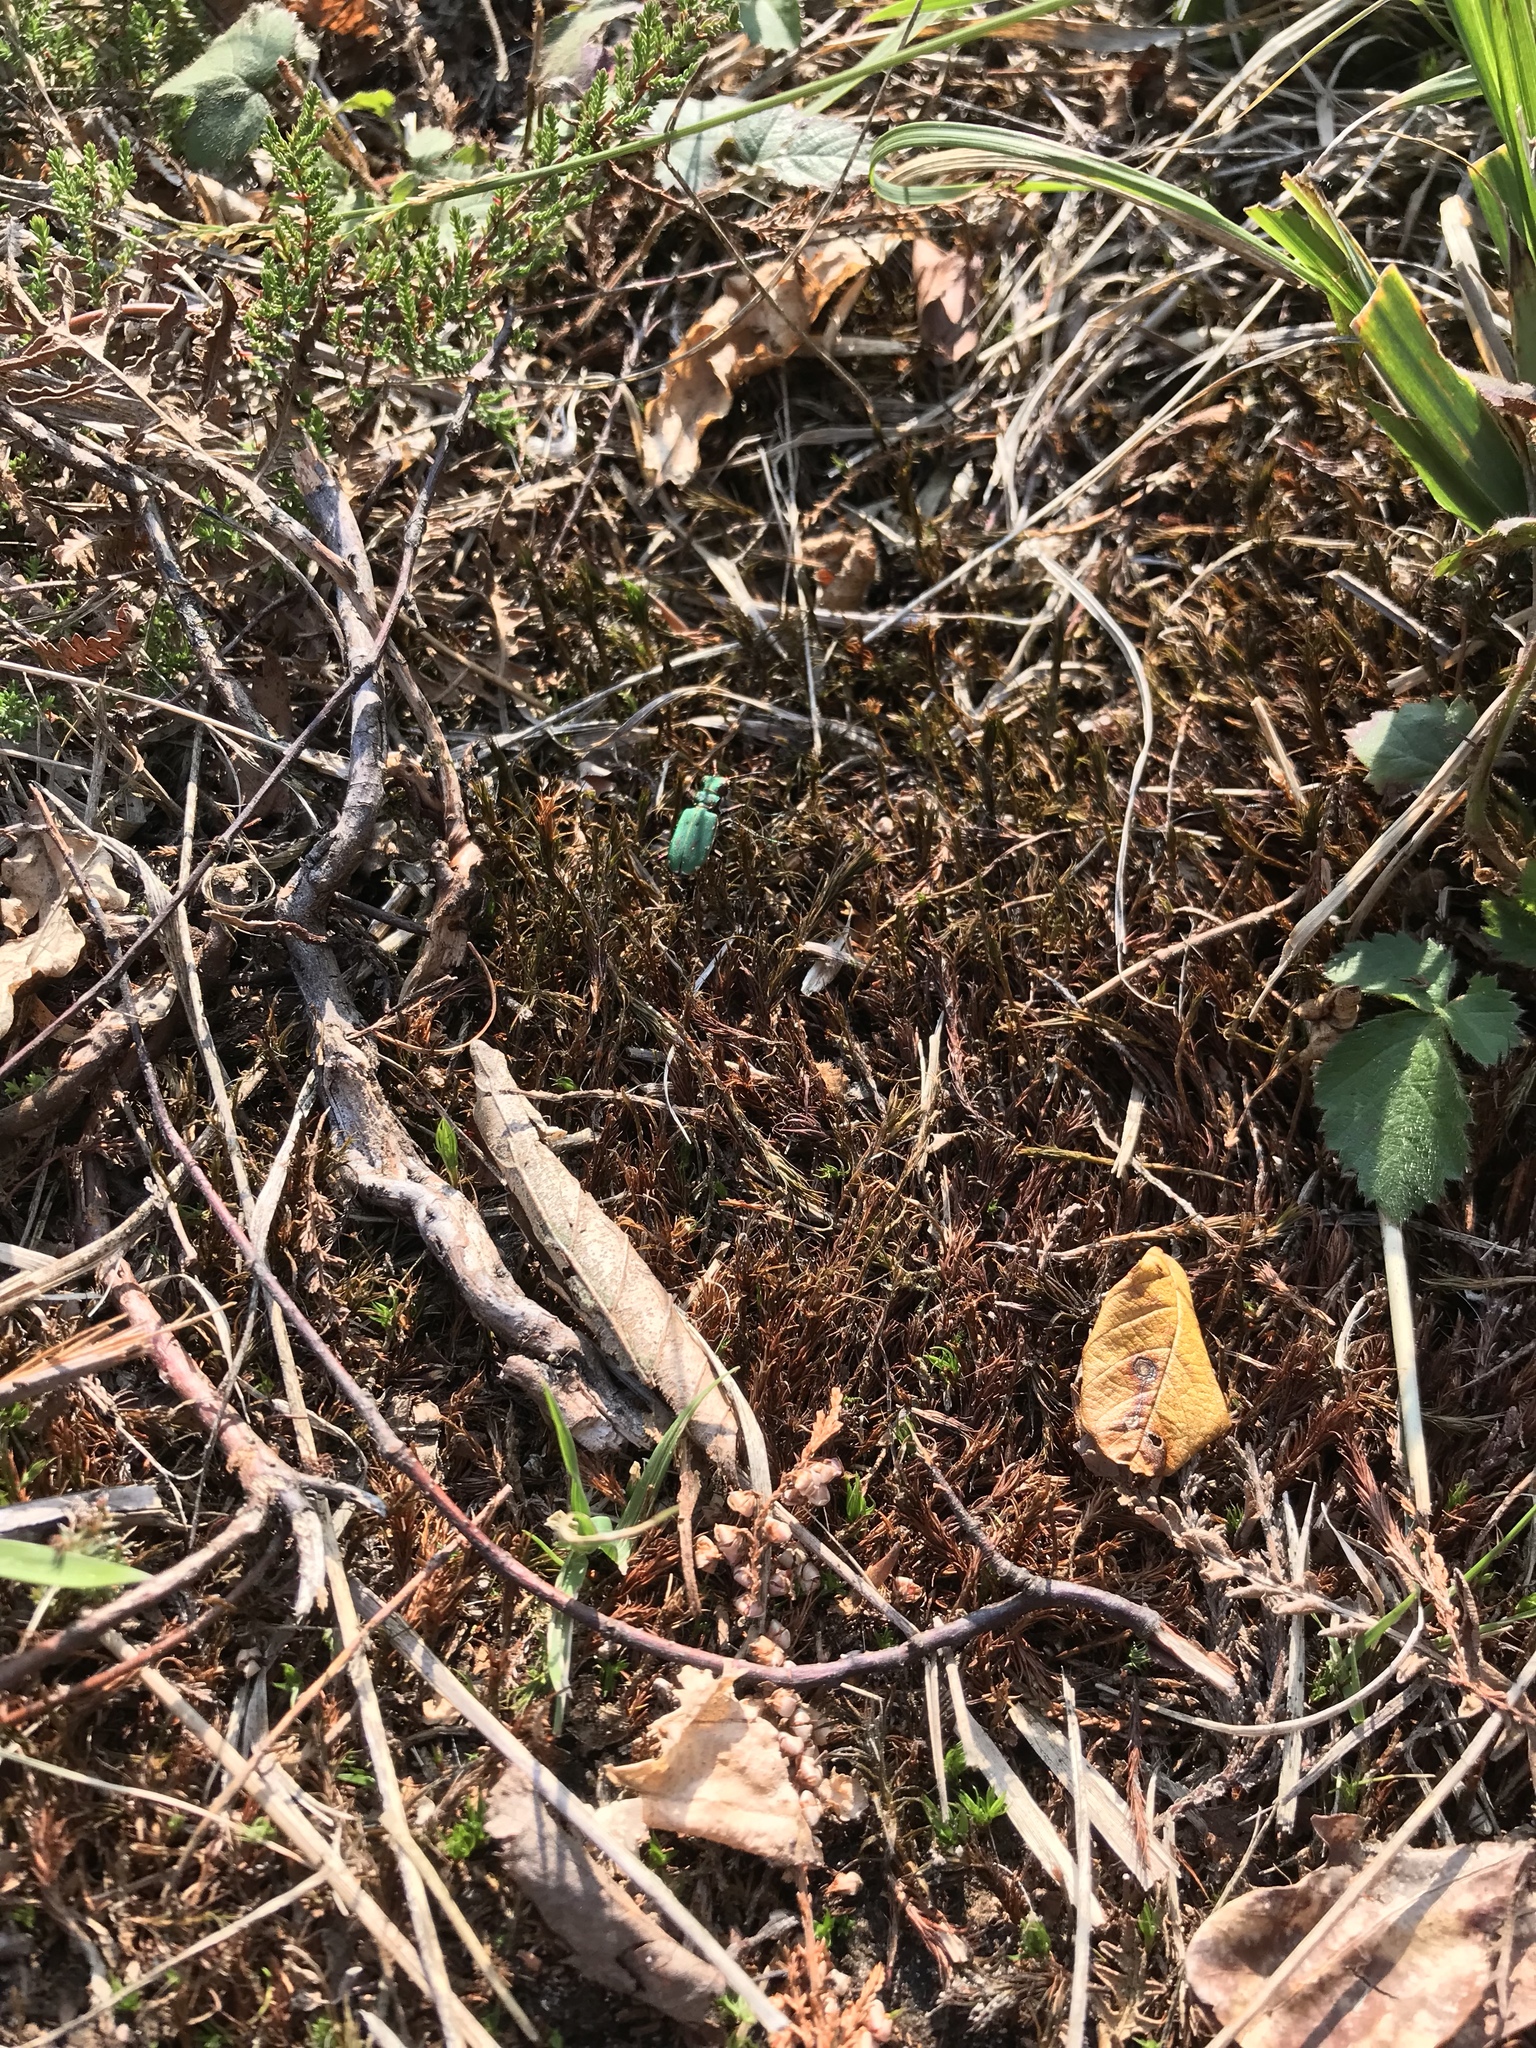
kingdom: Animalia
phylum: Arthropoda
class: Insecta
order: Coleoptera
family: Carabidae
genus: Cicindela
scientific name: Cicindela campestris
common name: Common tiger beetle
